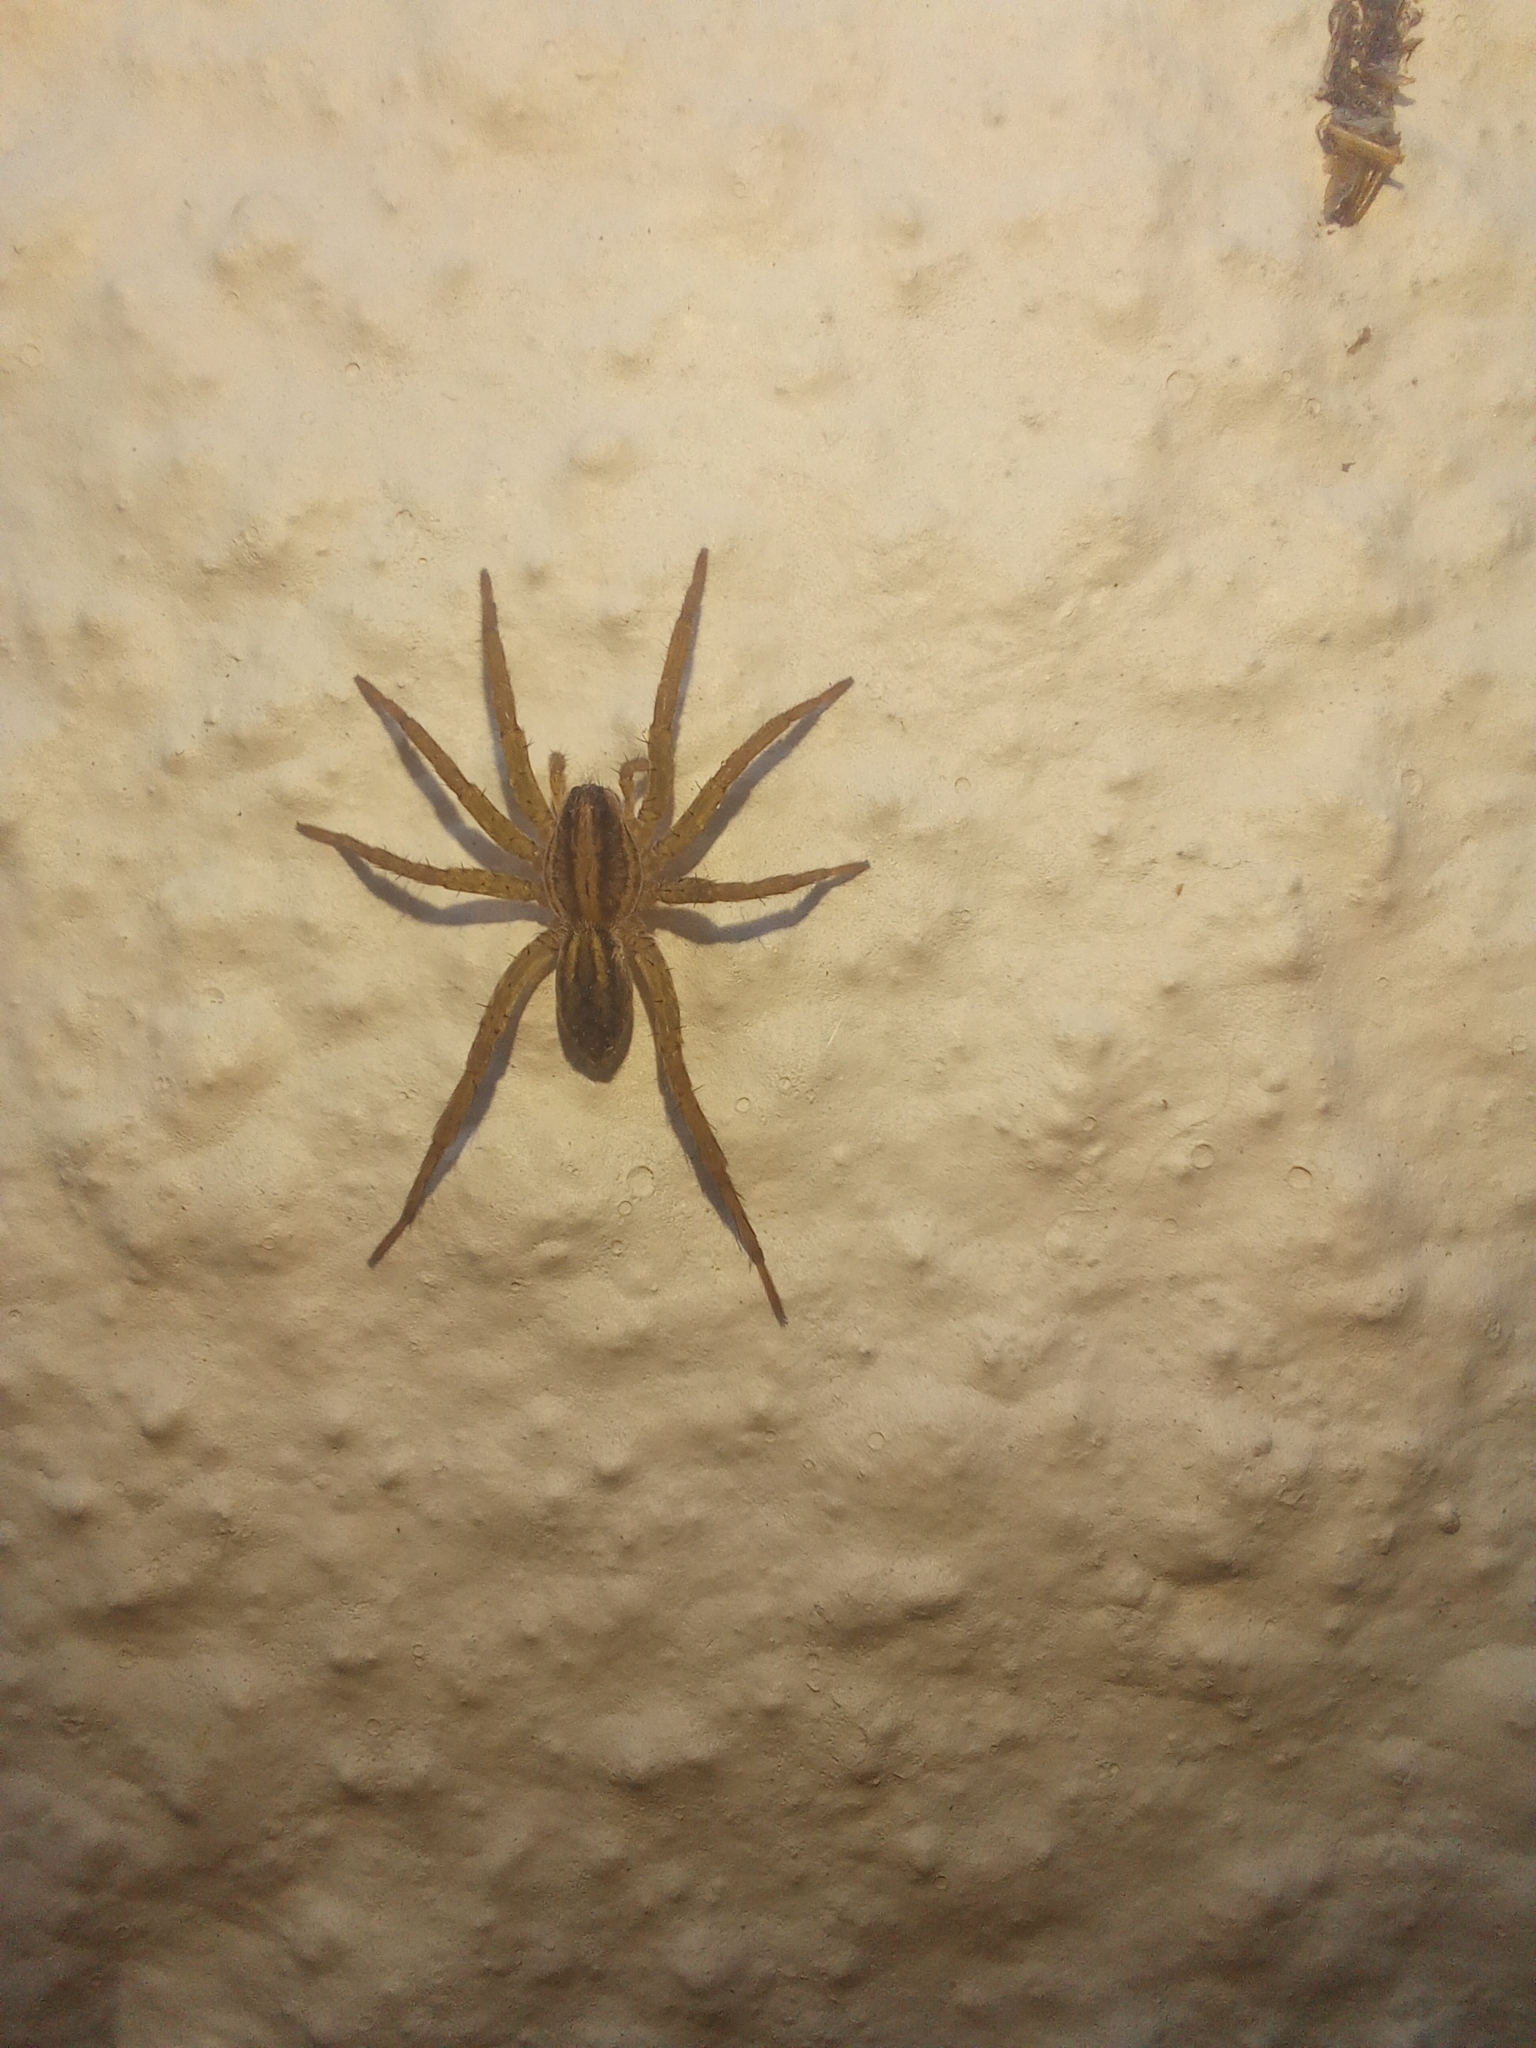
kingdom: Animalia
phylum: Arthropoda
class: Arachnida
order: Araneae
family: Lycosidae
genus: Alopecosa
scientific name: Alopecosa moesta
